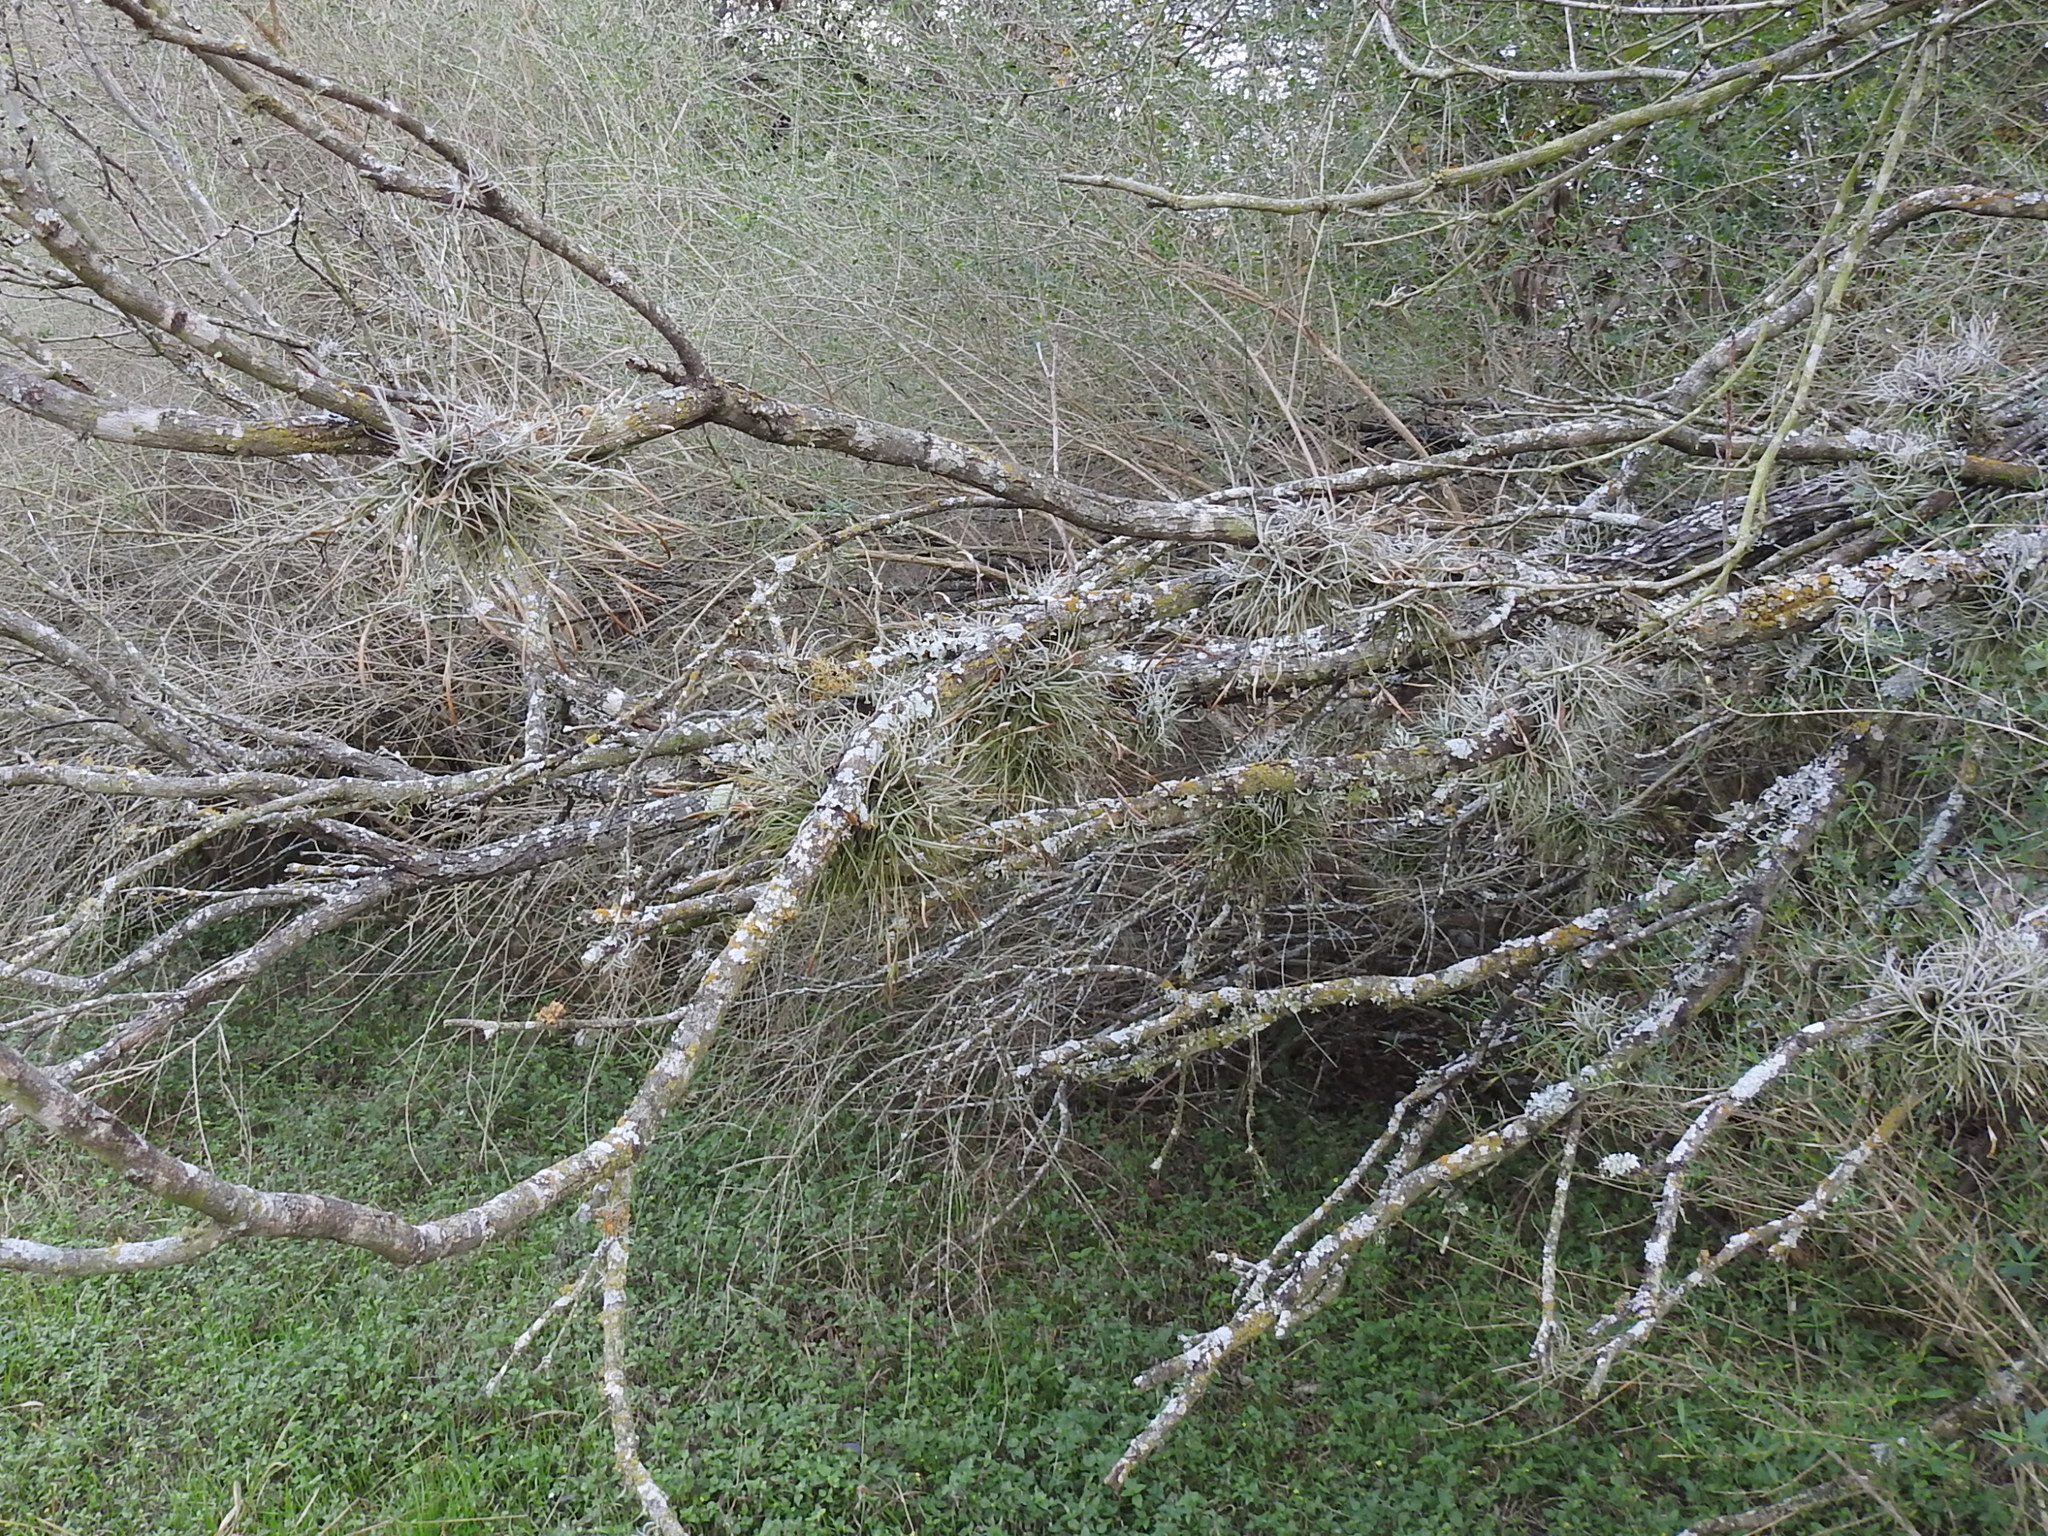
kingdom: Plantae
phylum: Tracheophyta
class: Liliopsida
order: Poales
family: Bromeliaceae
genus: Tillandsia
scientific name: Tillandsia recurvata
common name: Small ballmoss
